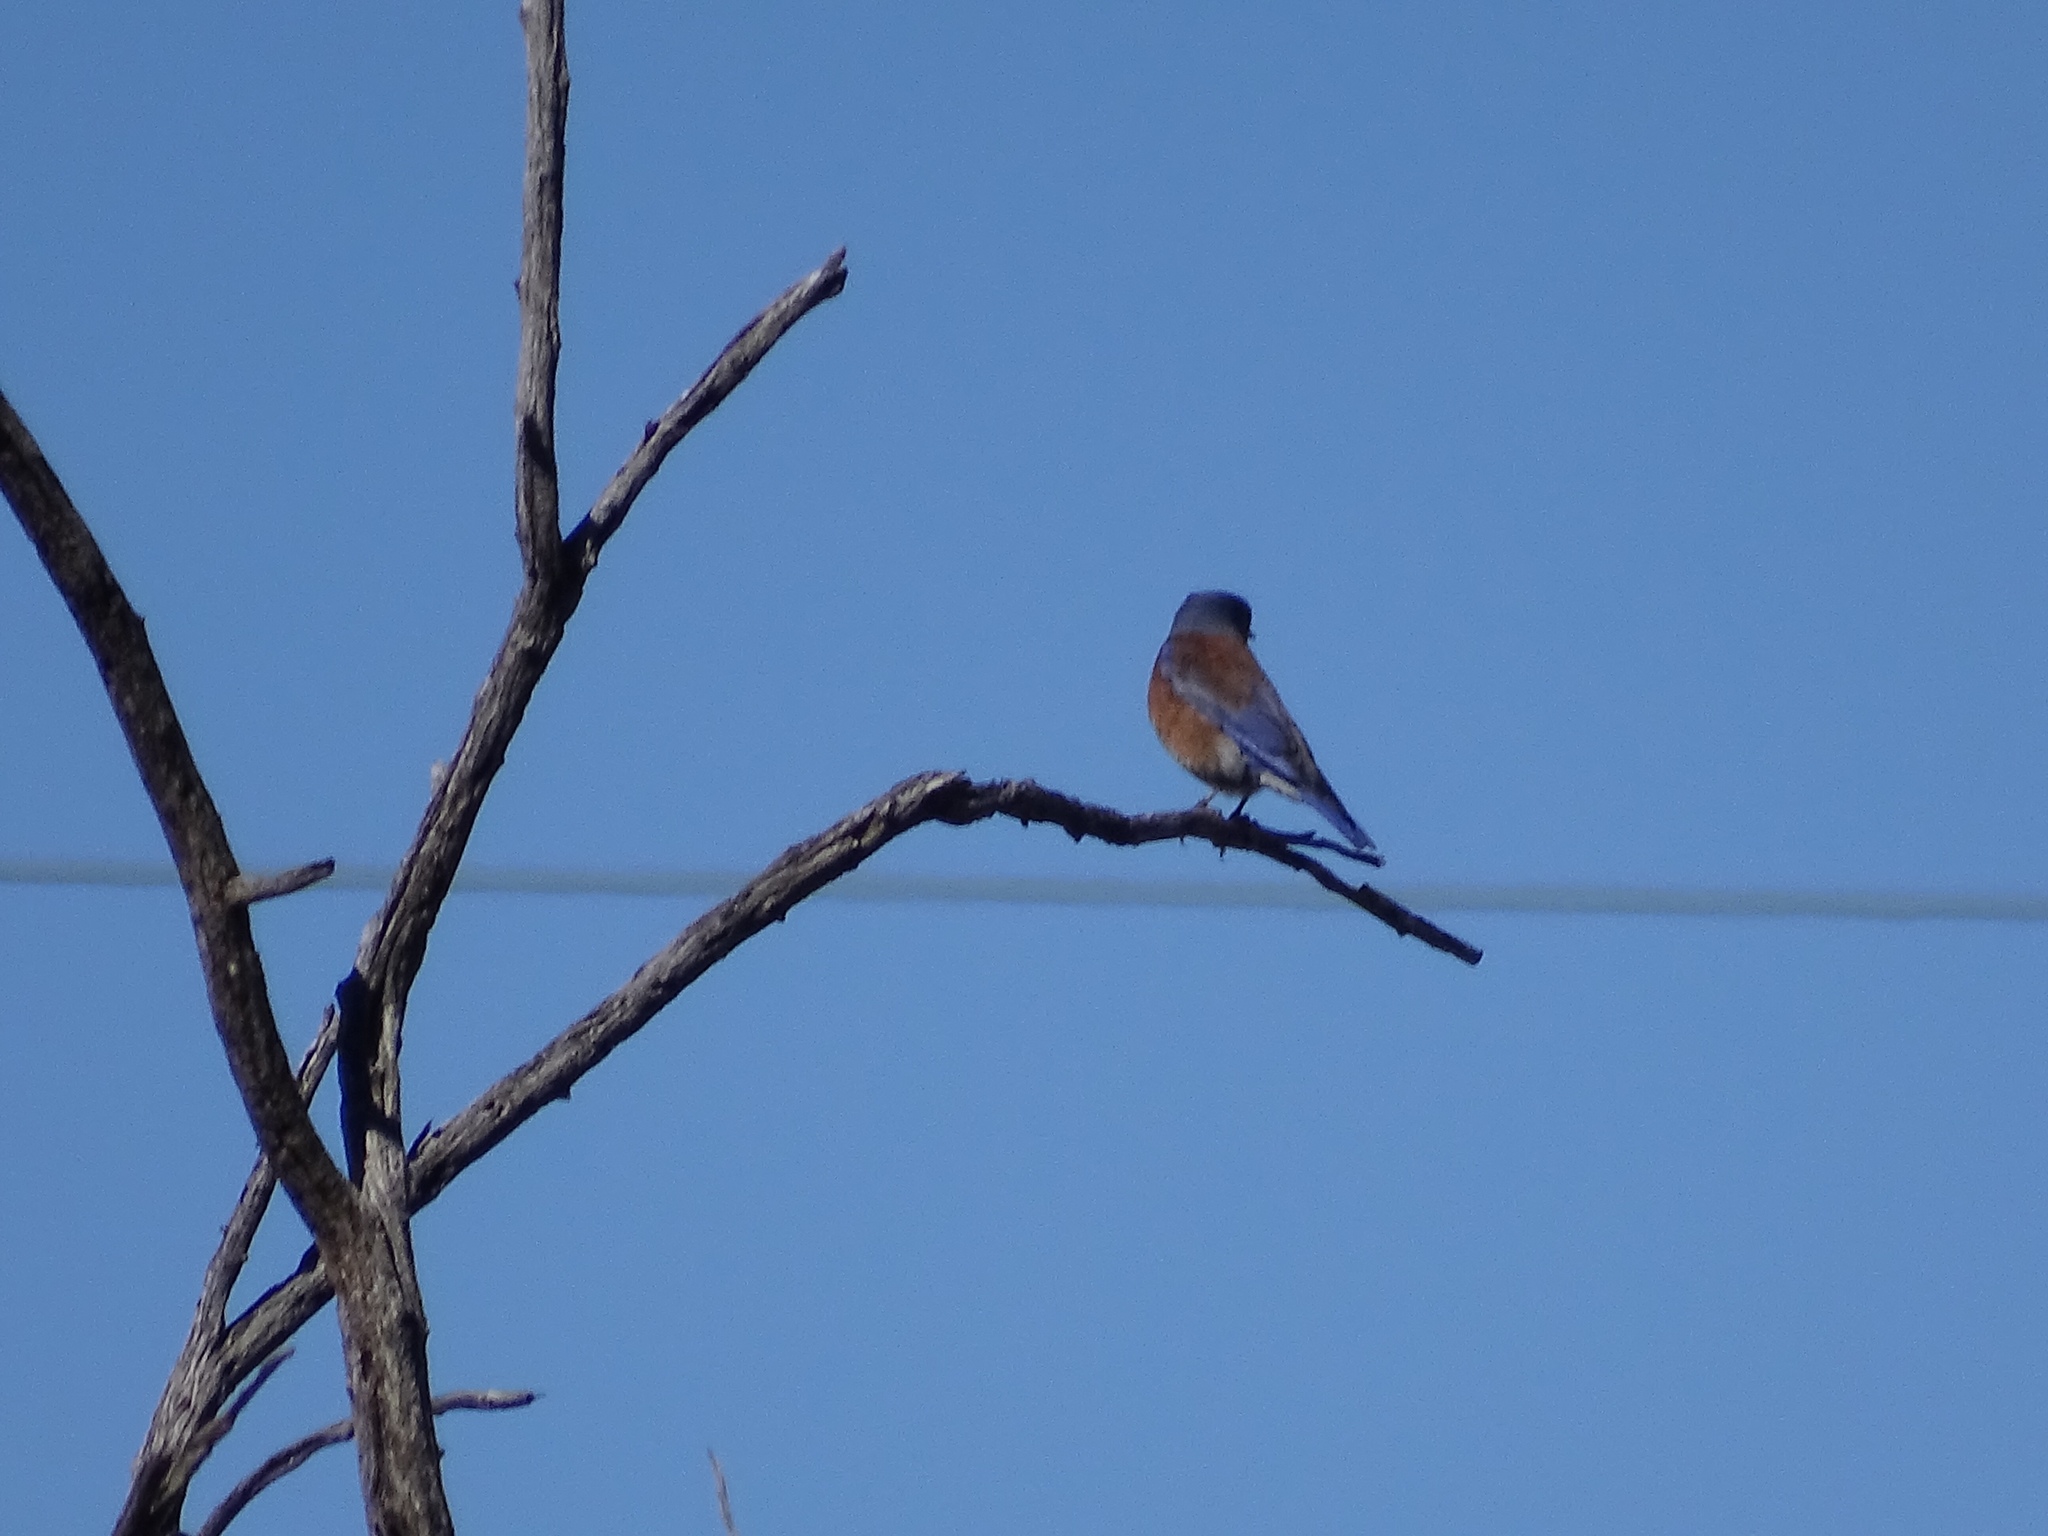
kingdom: Animalia
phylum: Chordata
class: Aves
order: Passeriformes
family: Turdidae
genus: Sialia
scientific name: Sialia mexicana
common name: Western bluebird
